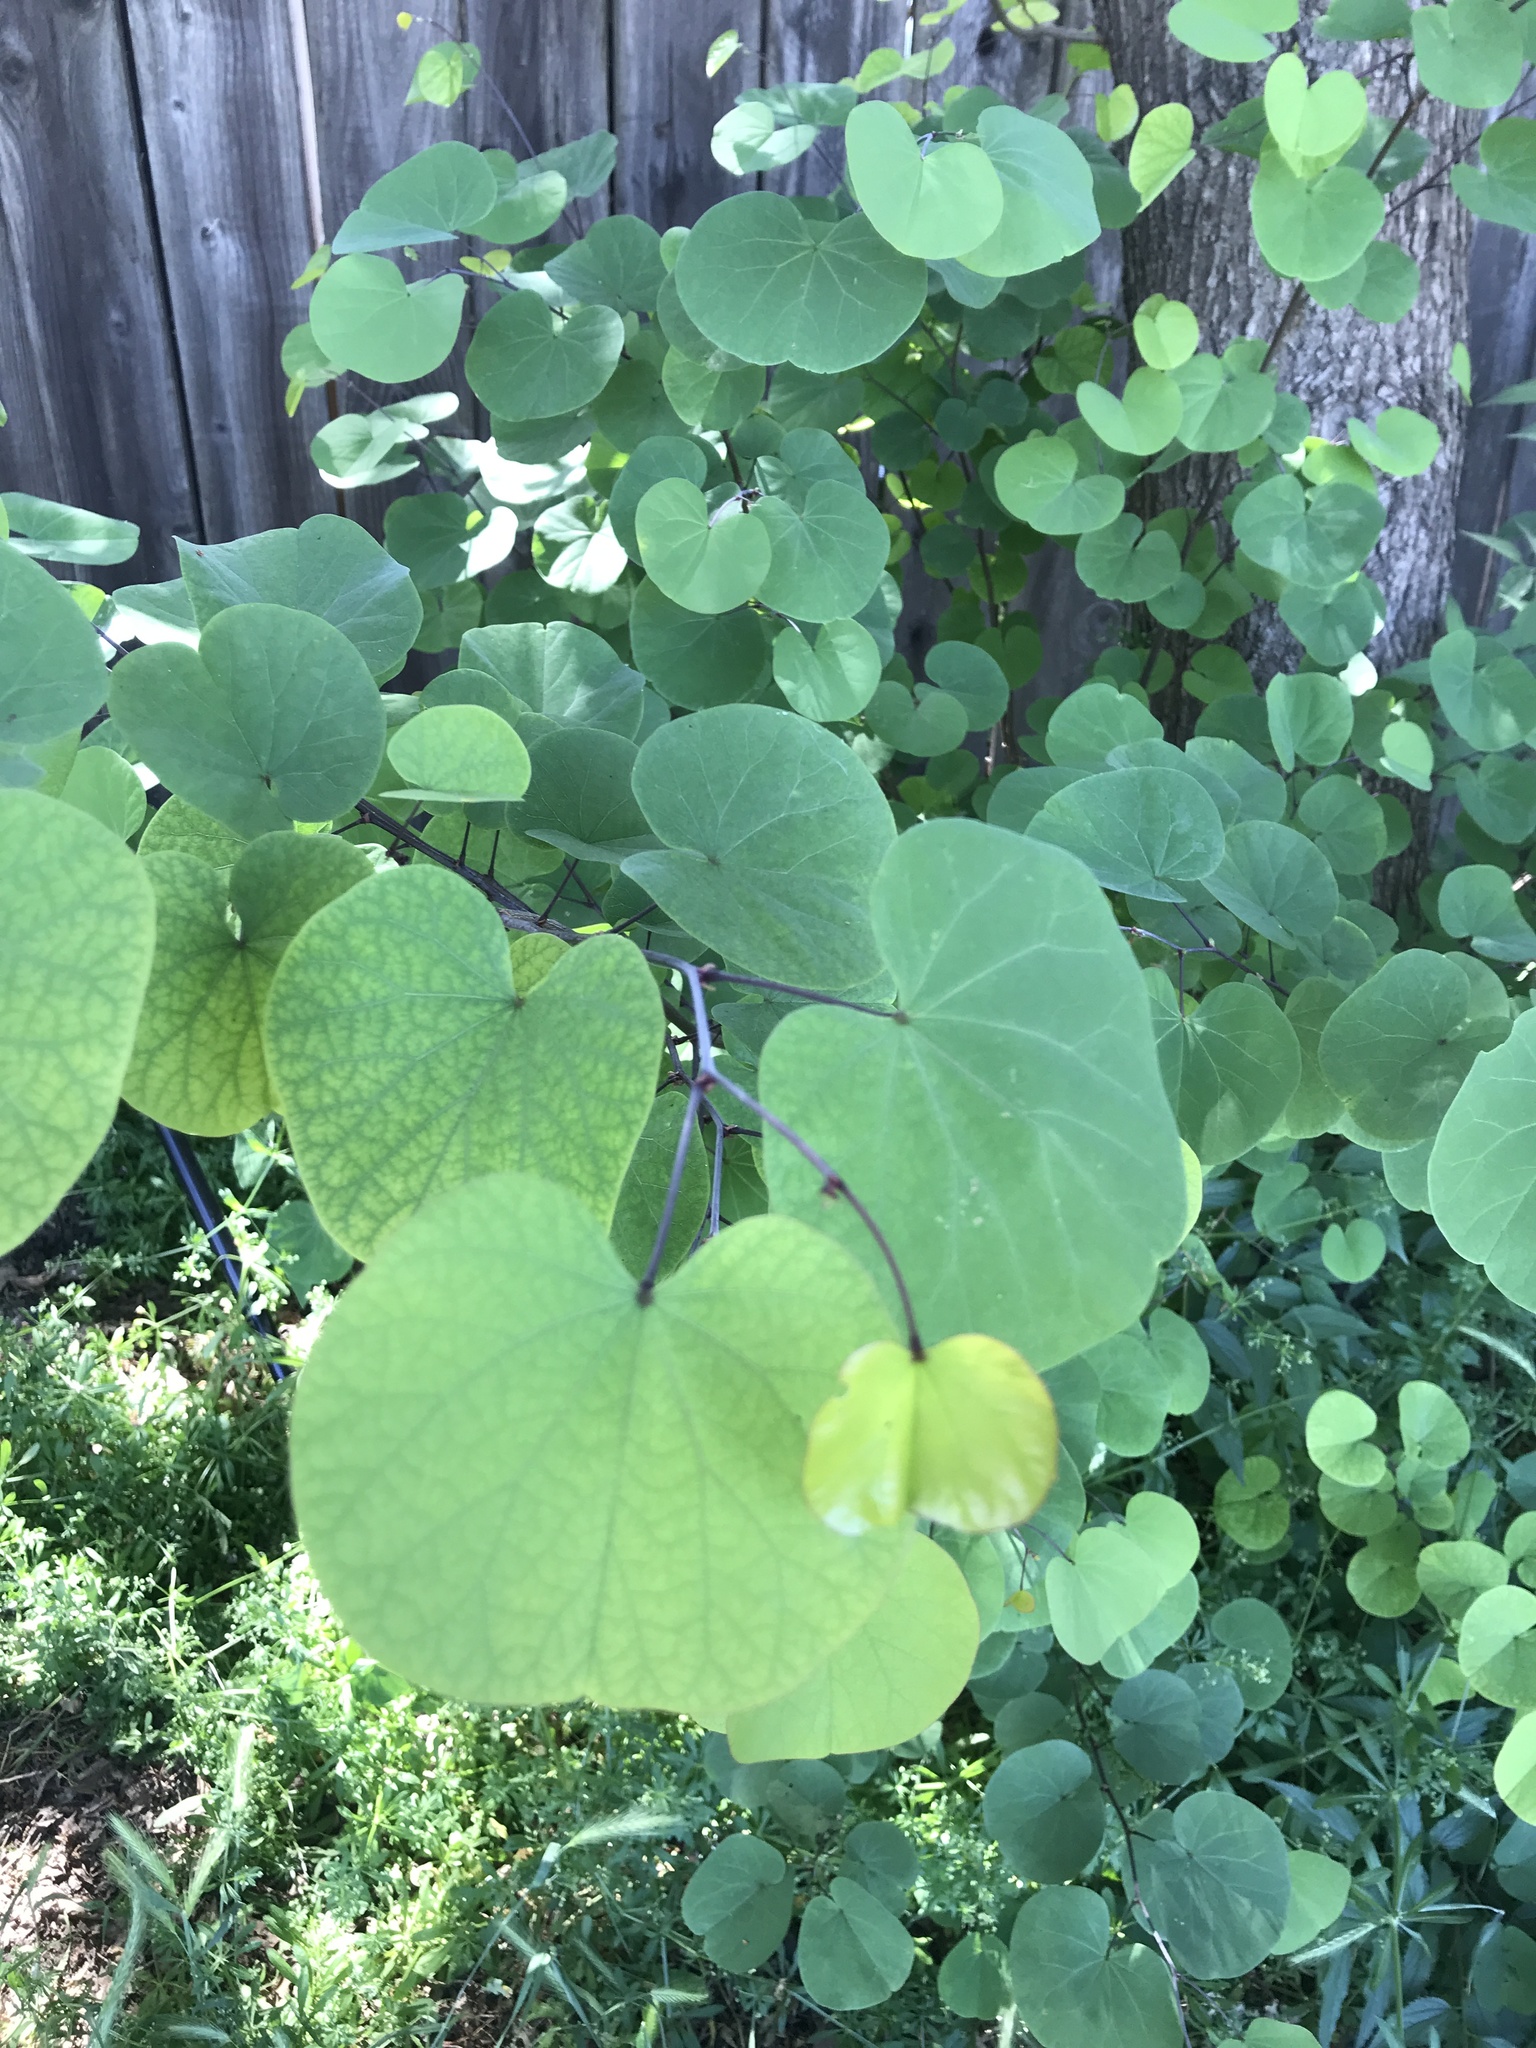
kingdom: Plantae
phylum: Tracheophyta
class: Magnoliopsida
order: Fabales
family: Fabaceae
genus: Cercis
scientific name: Cercis occidentalis
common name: California redbud
